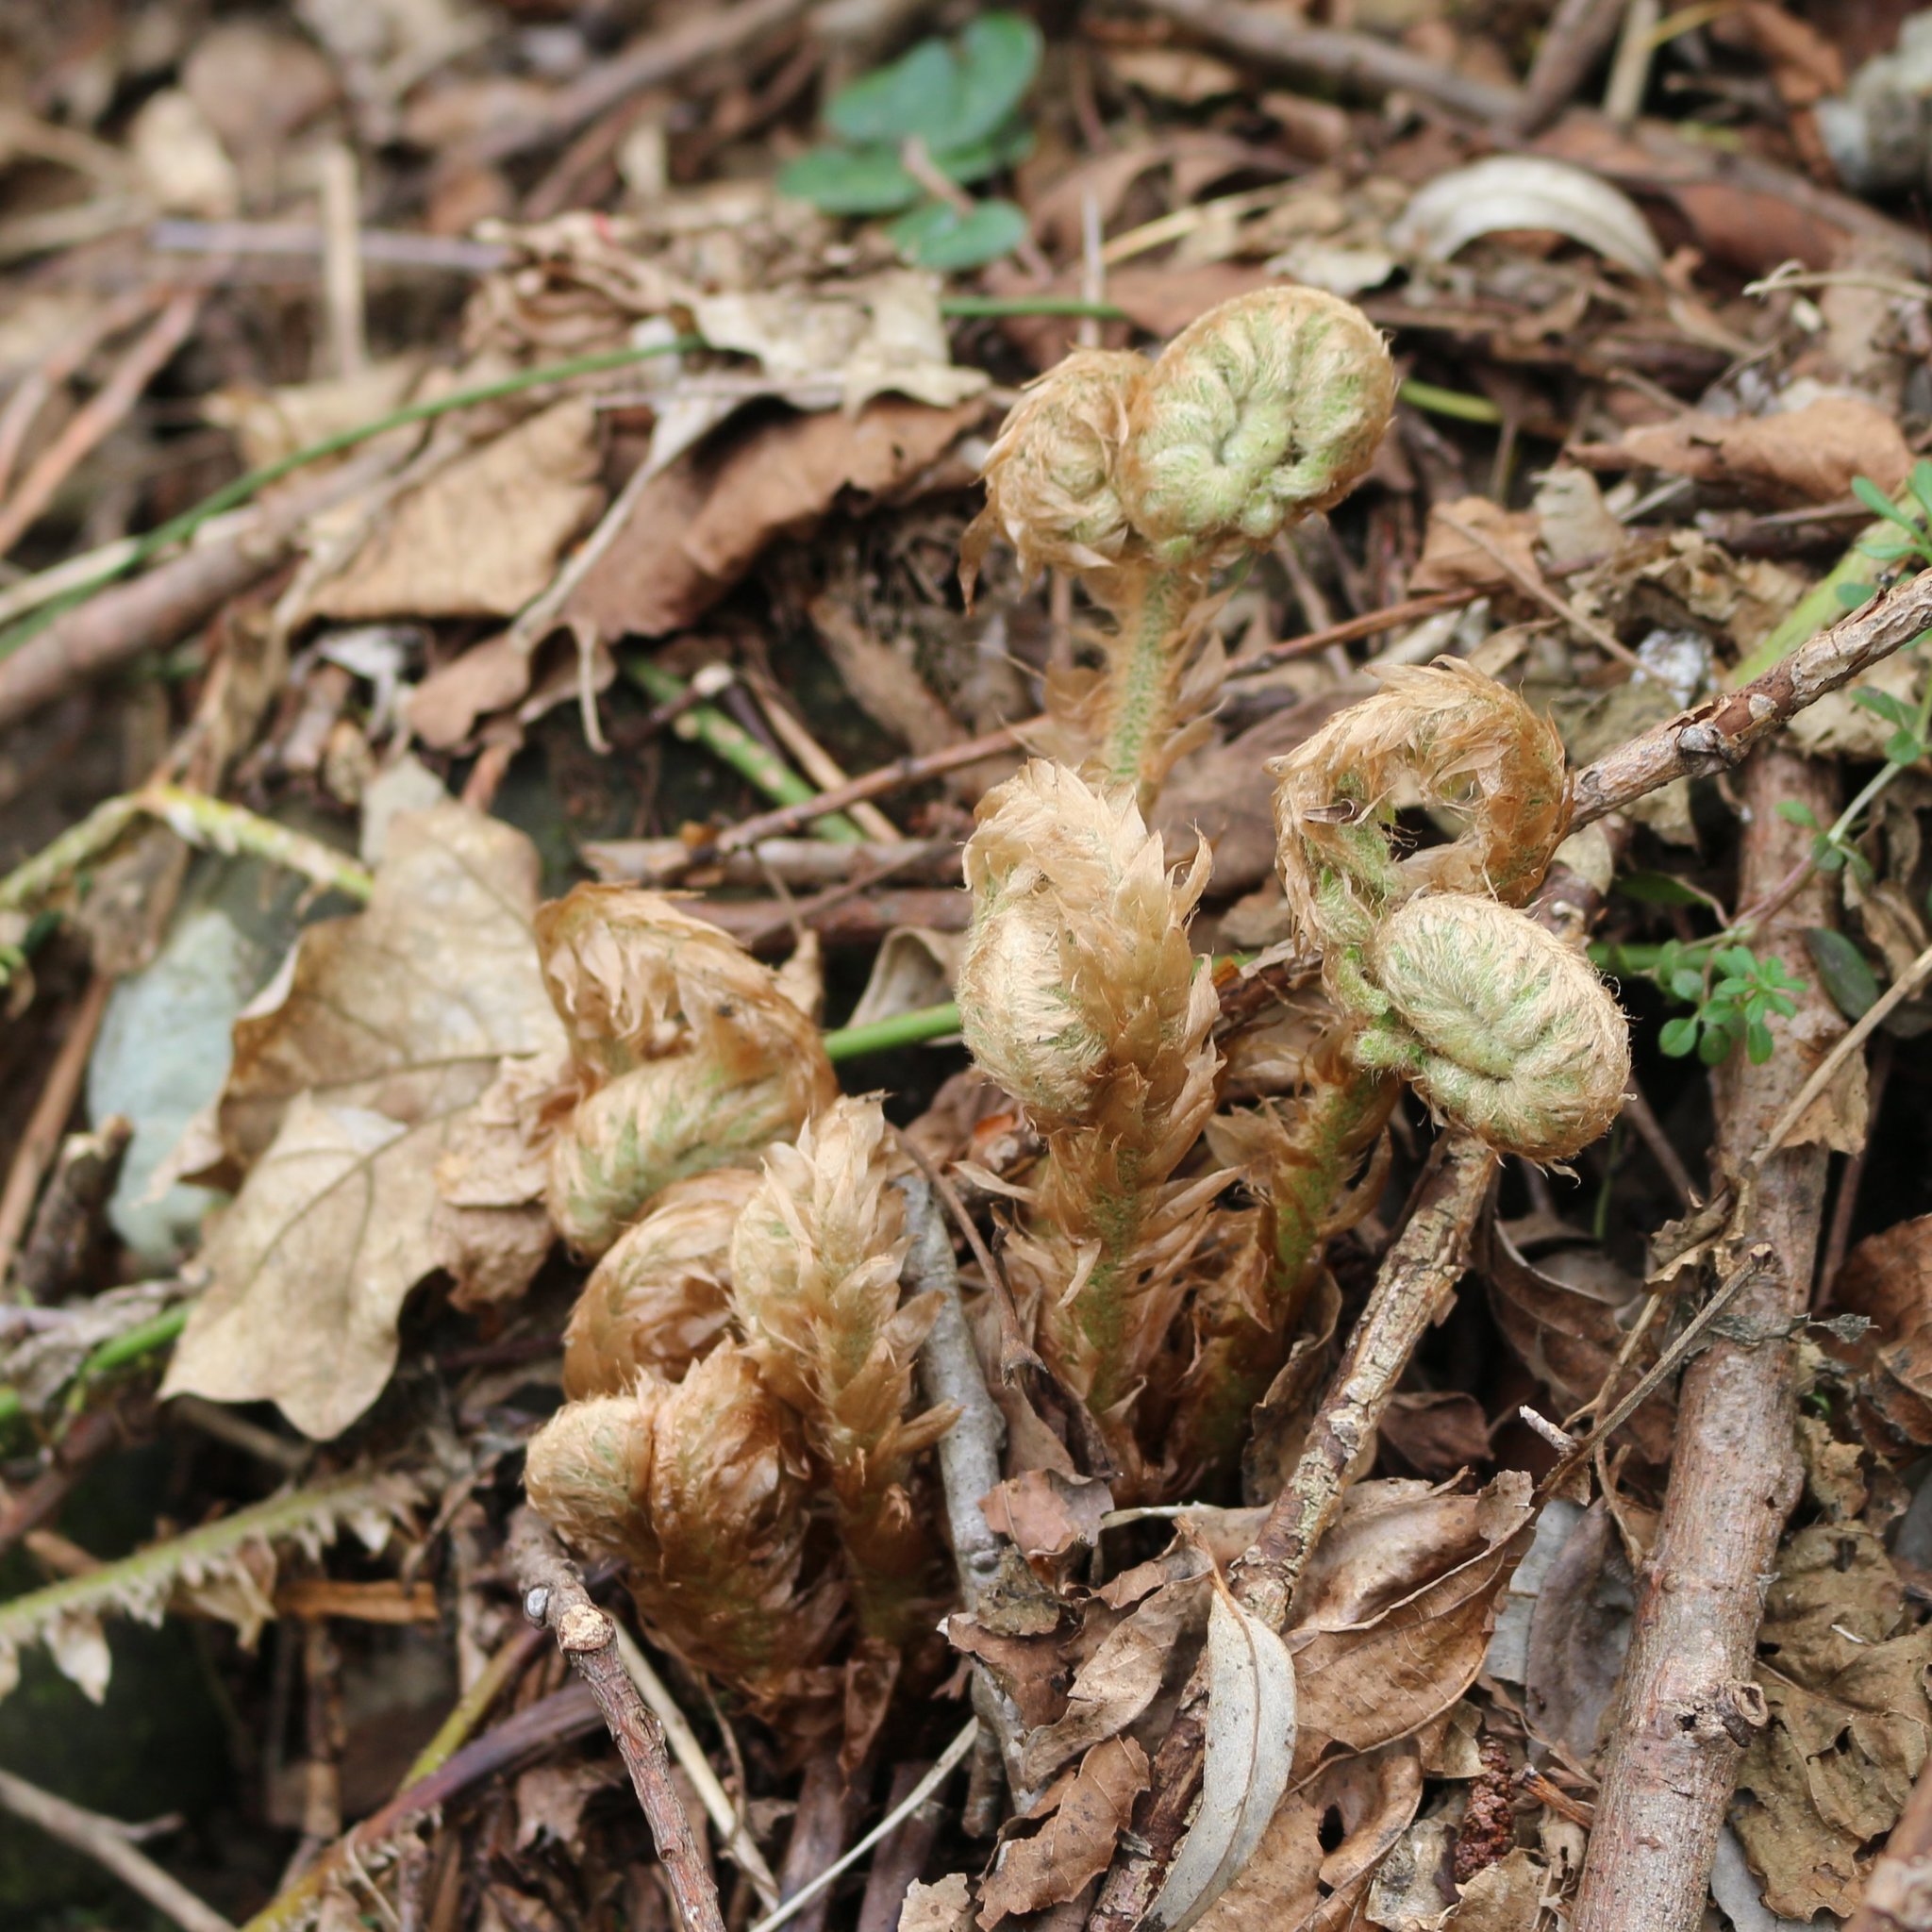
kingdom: Plantae
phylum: Tracheophyta
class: Polypodiopsida
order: Polypodiales
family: Dryopteridaceae
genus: Polystichum
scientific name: Polystichum braunii
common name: Braun's holly fern
